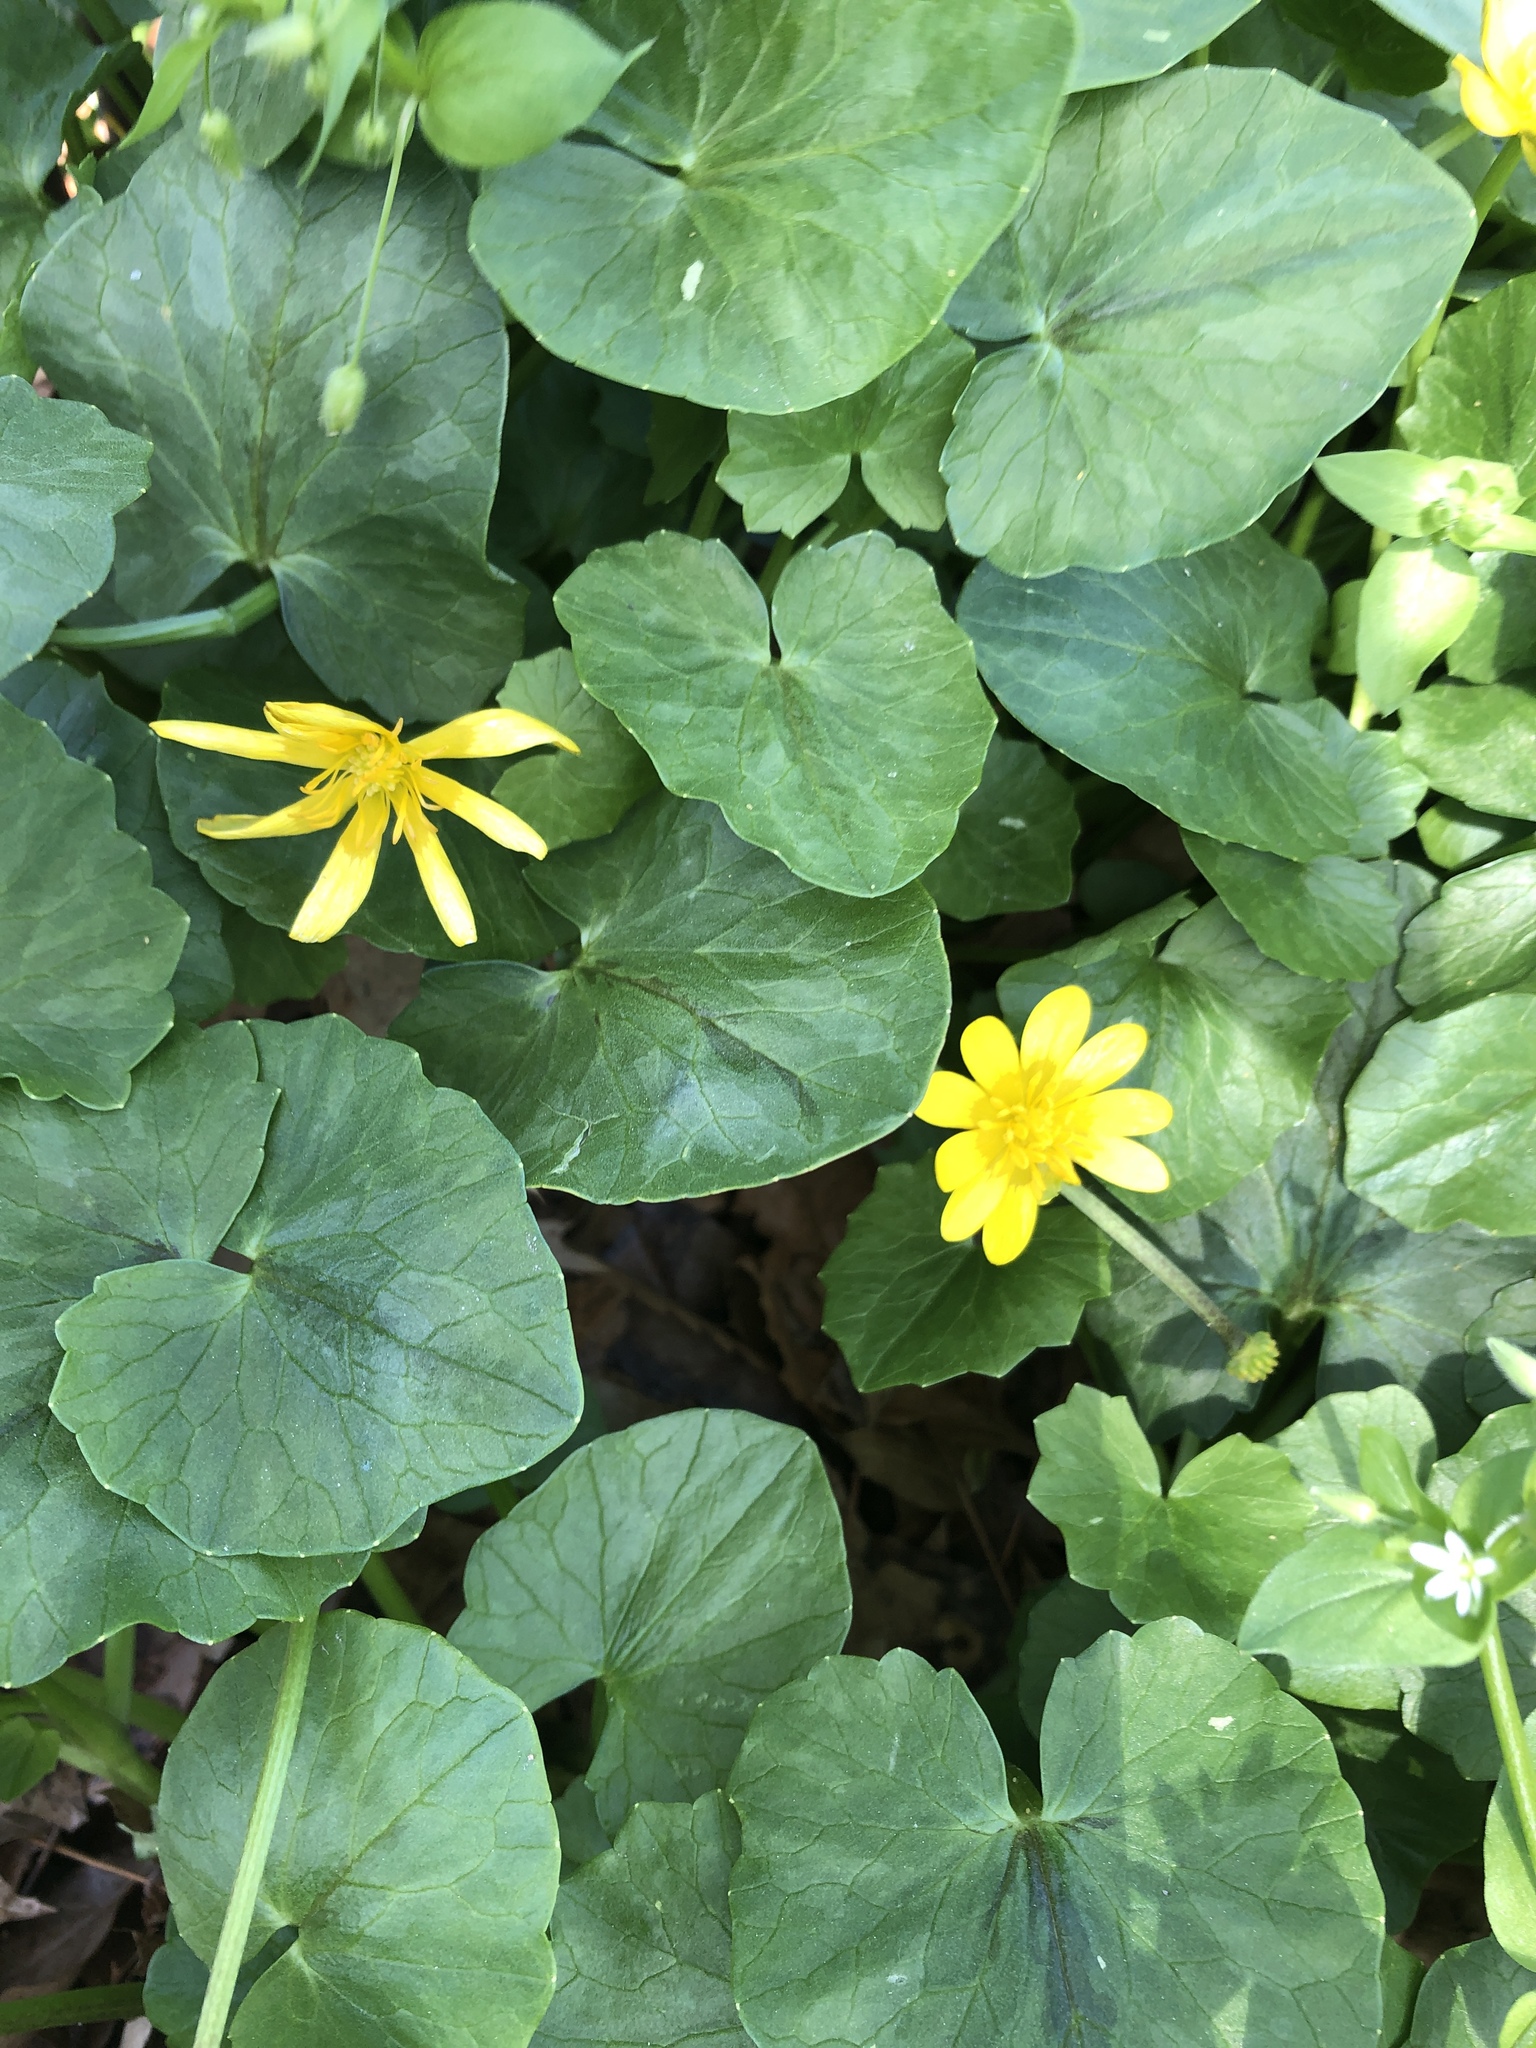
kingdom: Plantae
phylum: Tracheophyta
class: Magnoliopsida
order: Ranunculales
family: Ranunculaceae
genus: Ficaria
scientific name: Ficaria verna
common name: Lesser celandine
